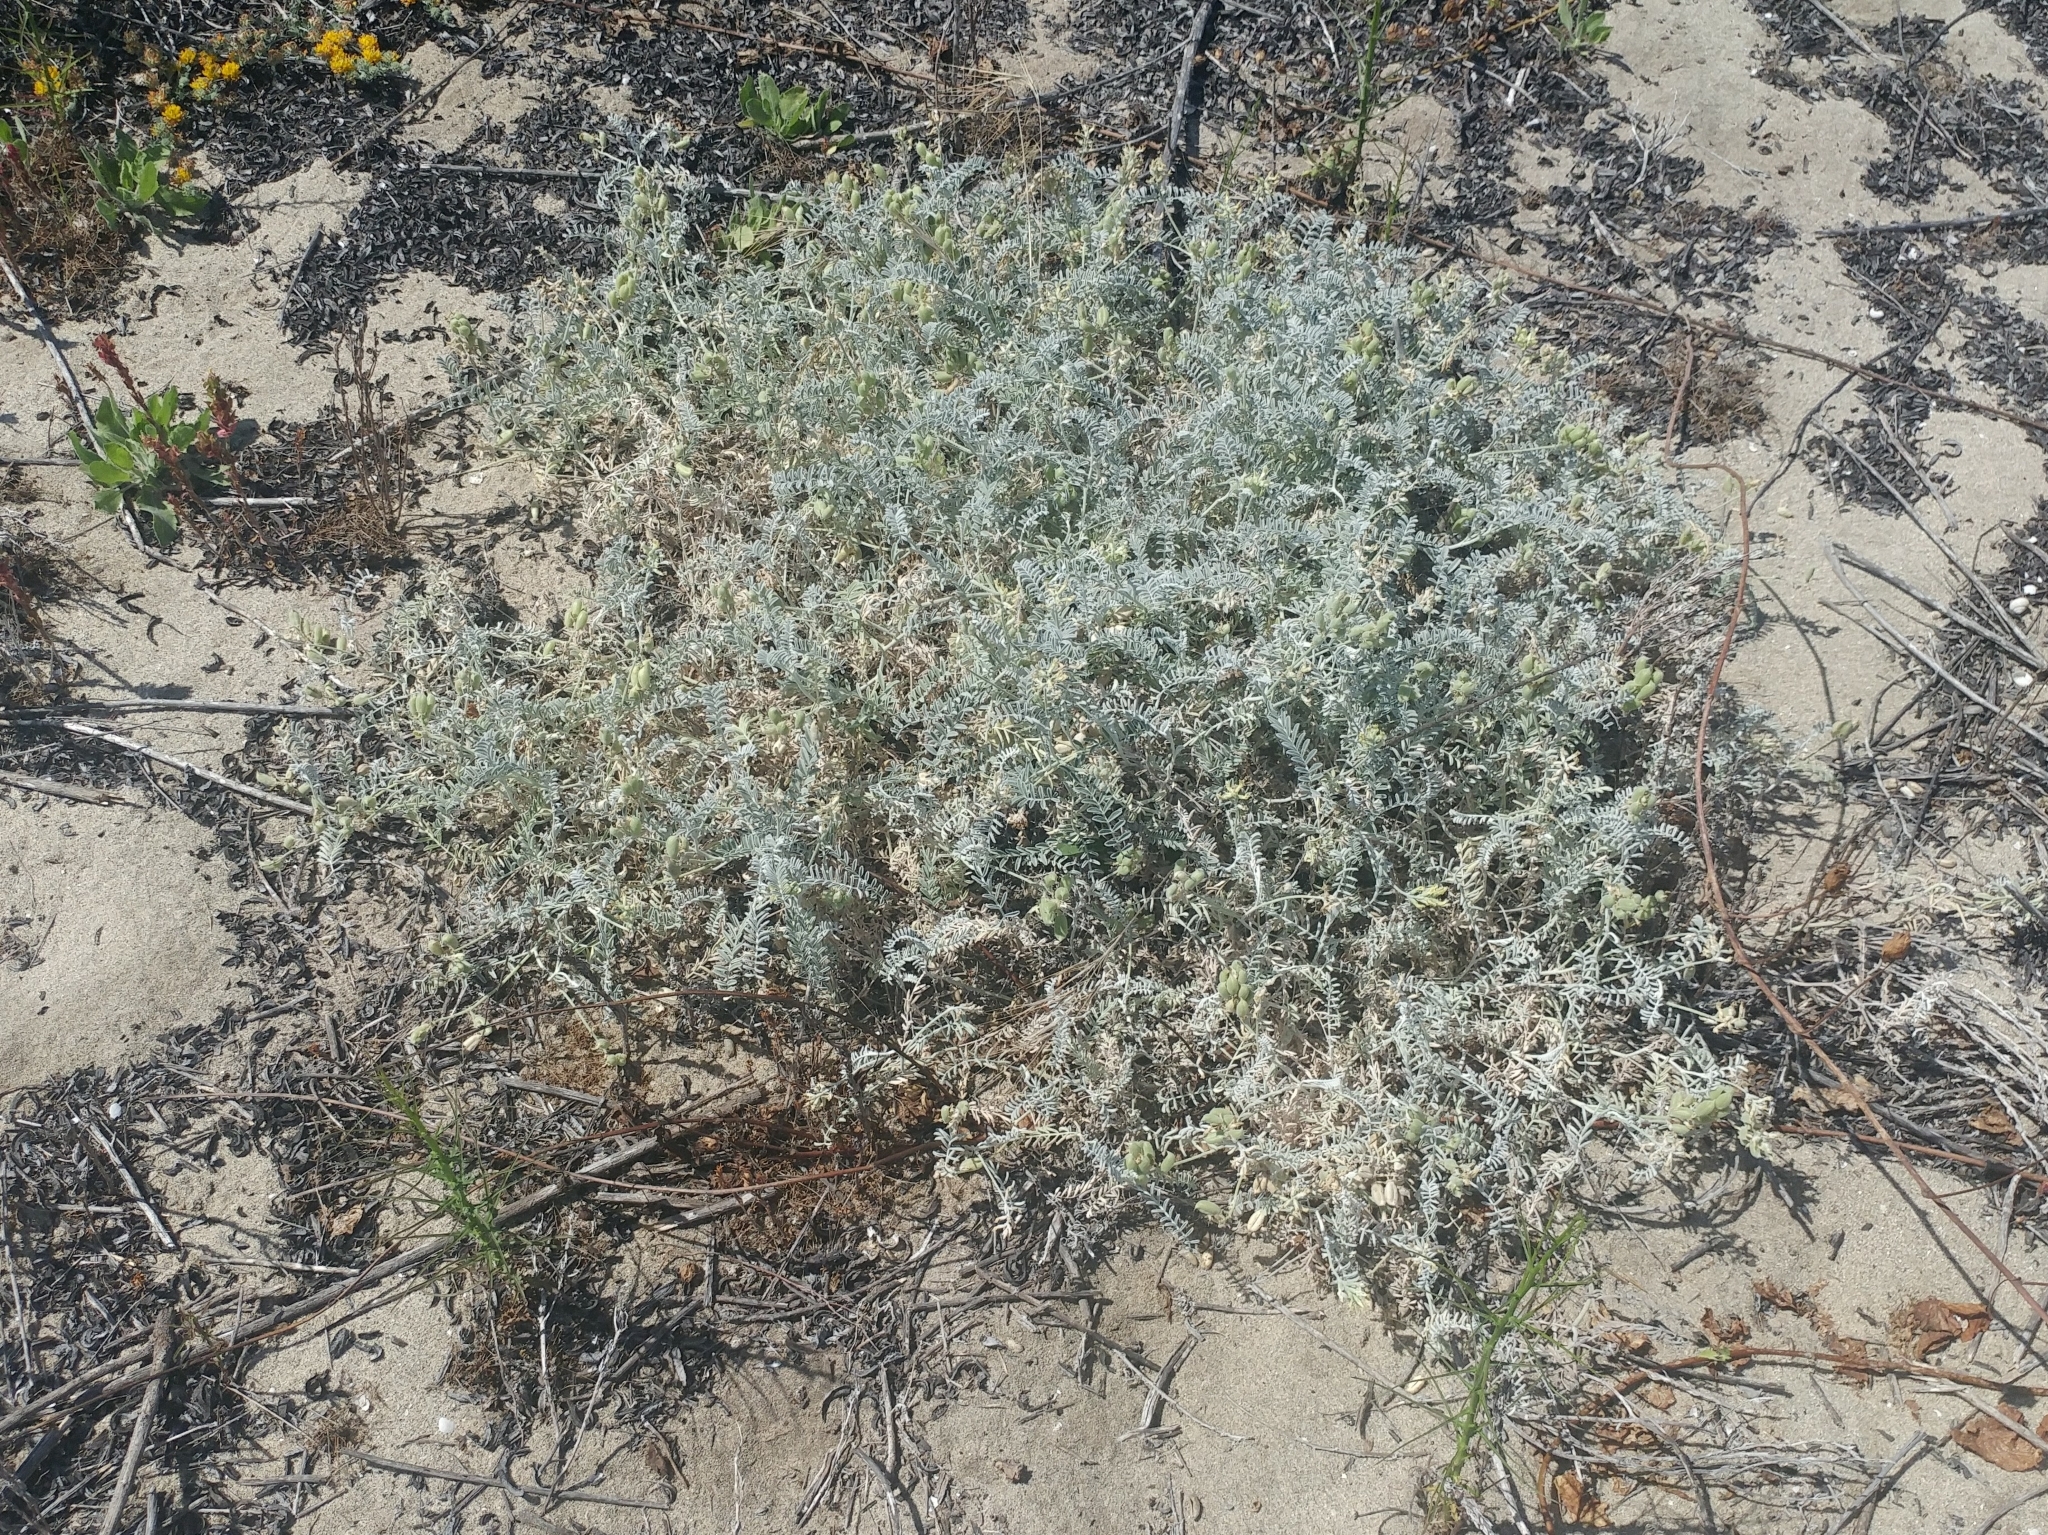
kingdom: Plantae
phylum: Tracheophyta
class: Magnoliopsida
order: Fabales
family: Fabaceae
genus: Astragalus
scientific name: Astragalus miguelensis
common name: San miguel milk-vetch
